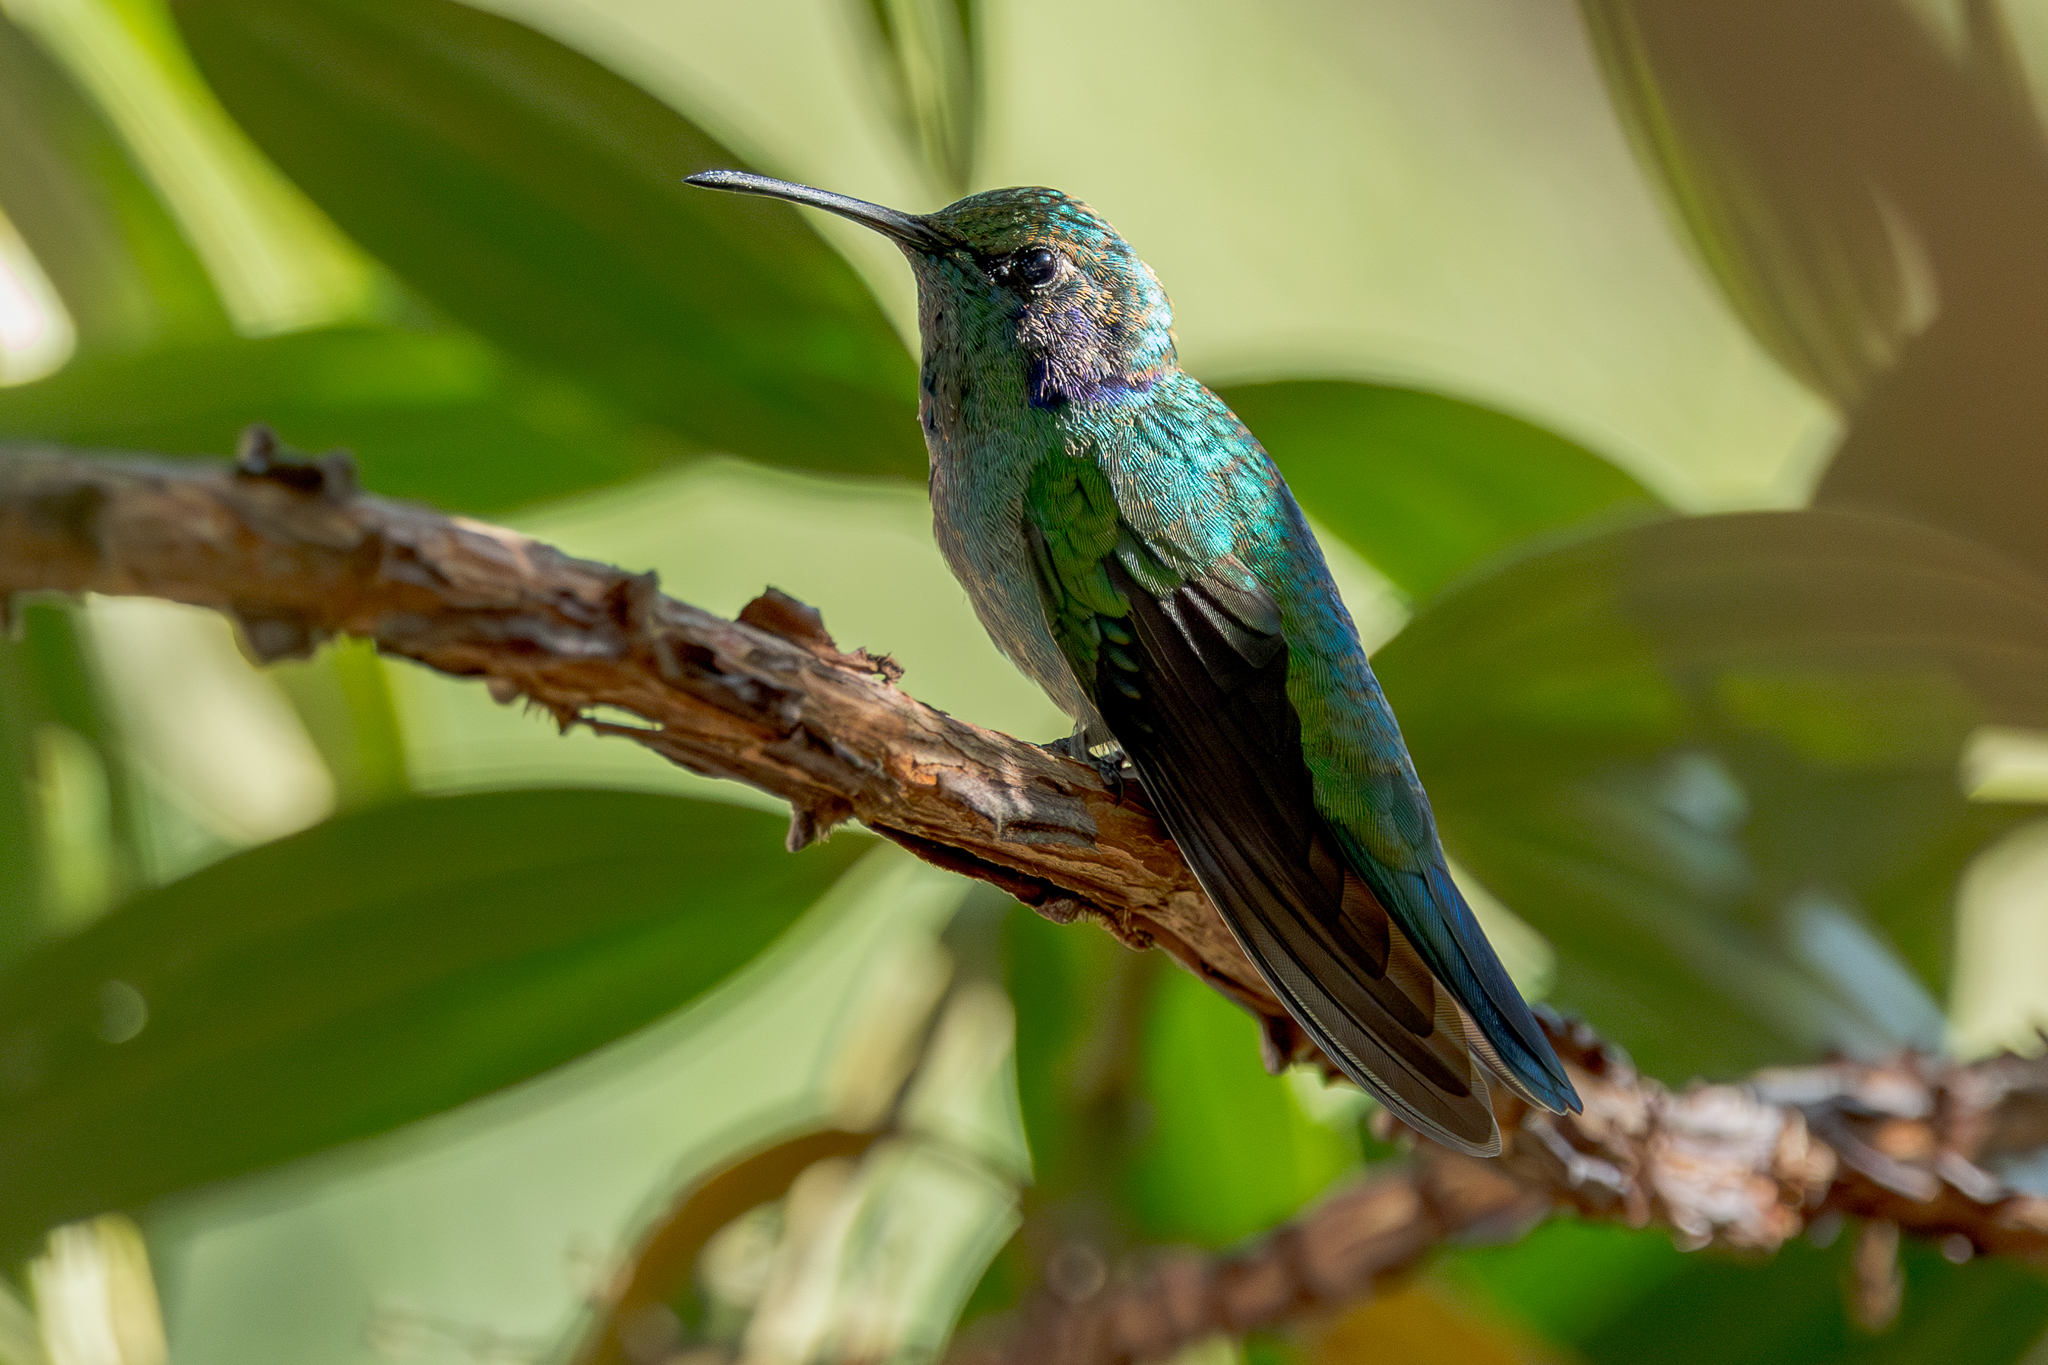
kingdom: Animalia
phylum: Chordata
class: Aves
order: Apodiformes
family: Trochilidae
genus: Colibri
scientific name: Colibri cyanotus
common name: Lesser violetear
